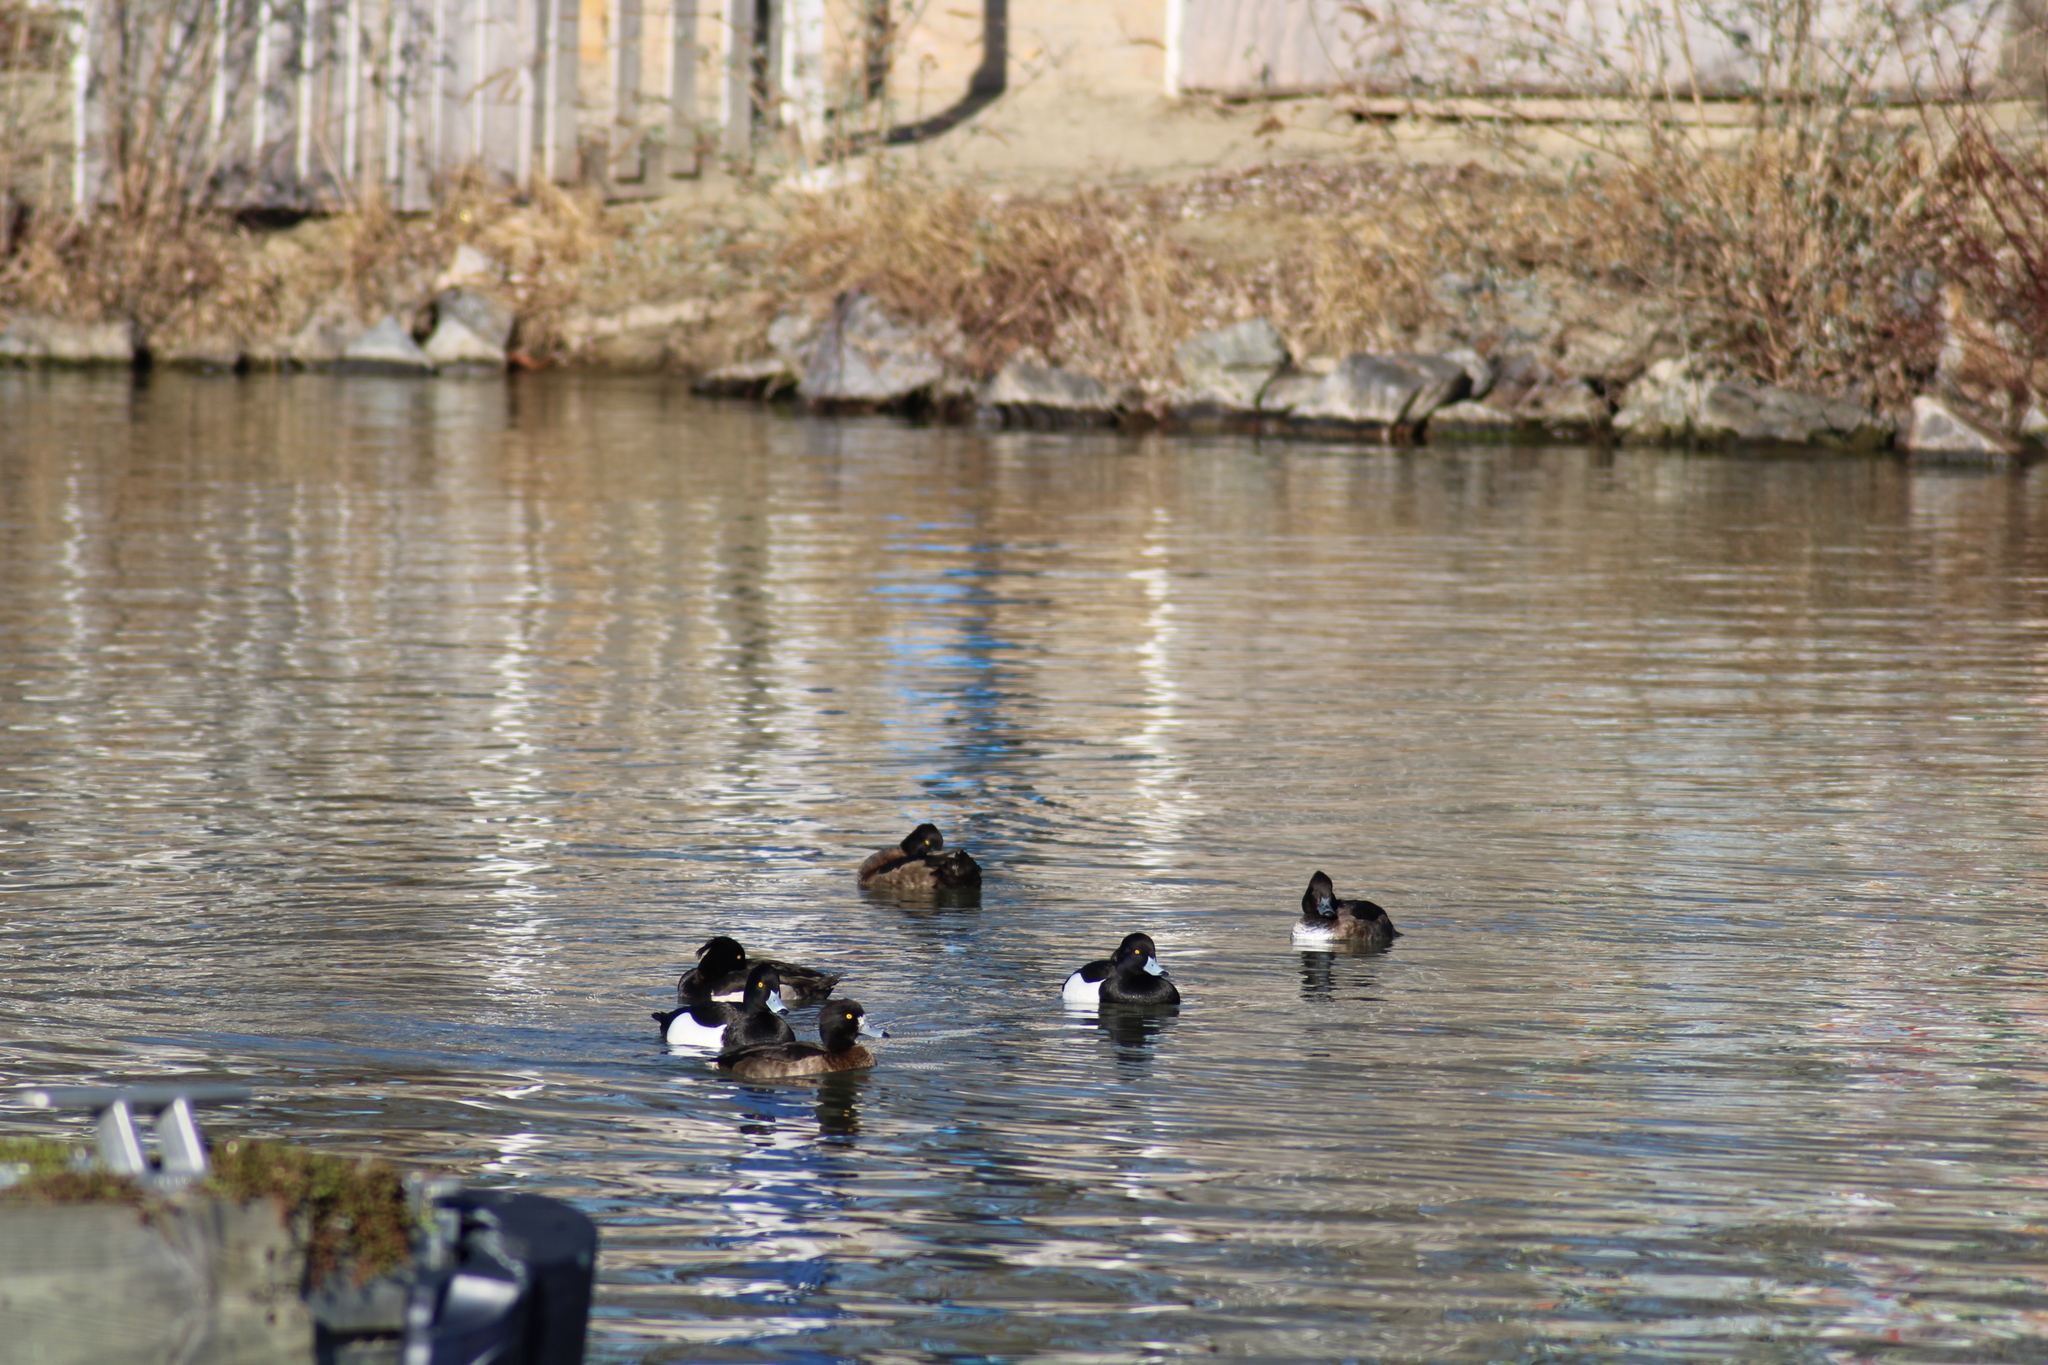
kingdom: Animalia
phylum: Chordata
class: Aves
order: Anseriformes
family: Anatidae
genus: Aythya
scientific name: Aythya fuligula
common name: Tufted duck
